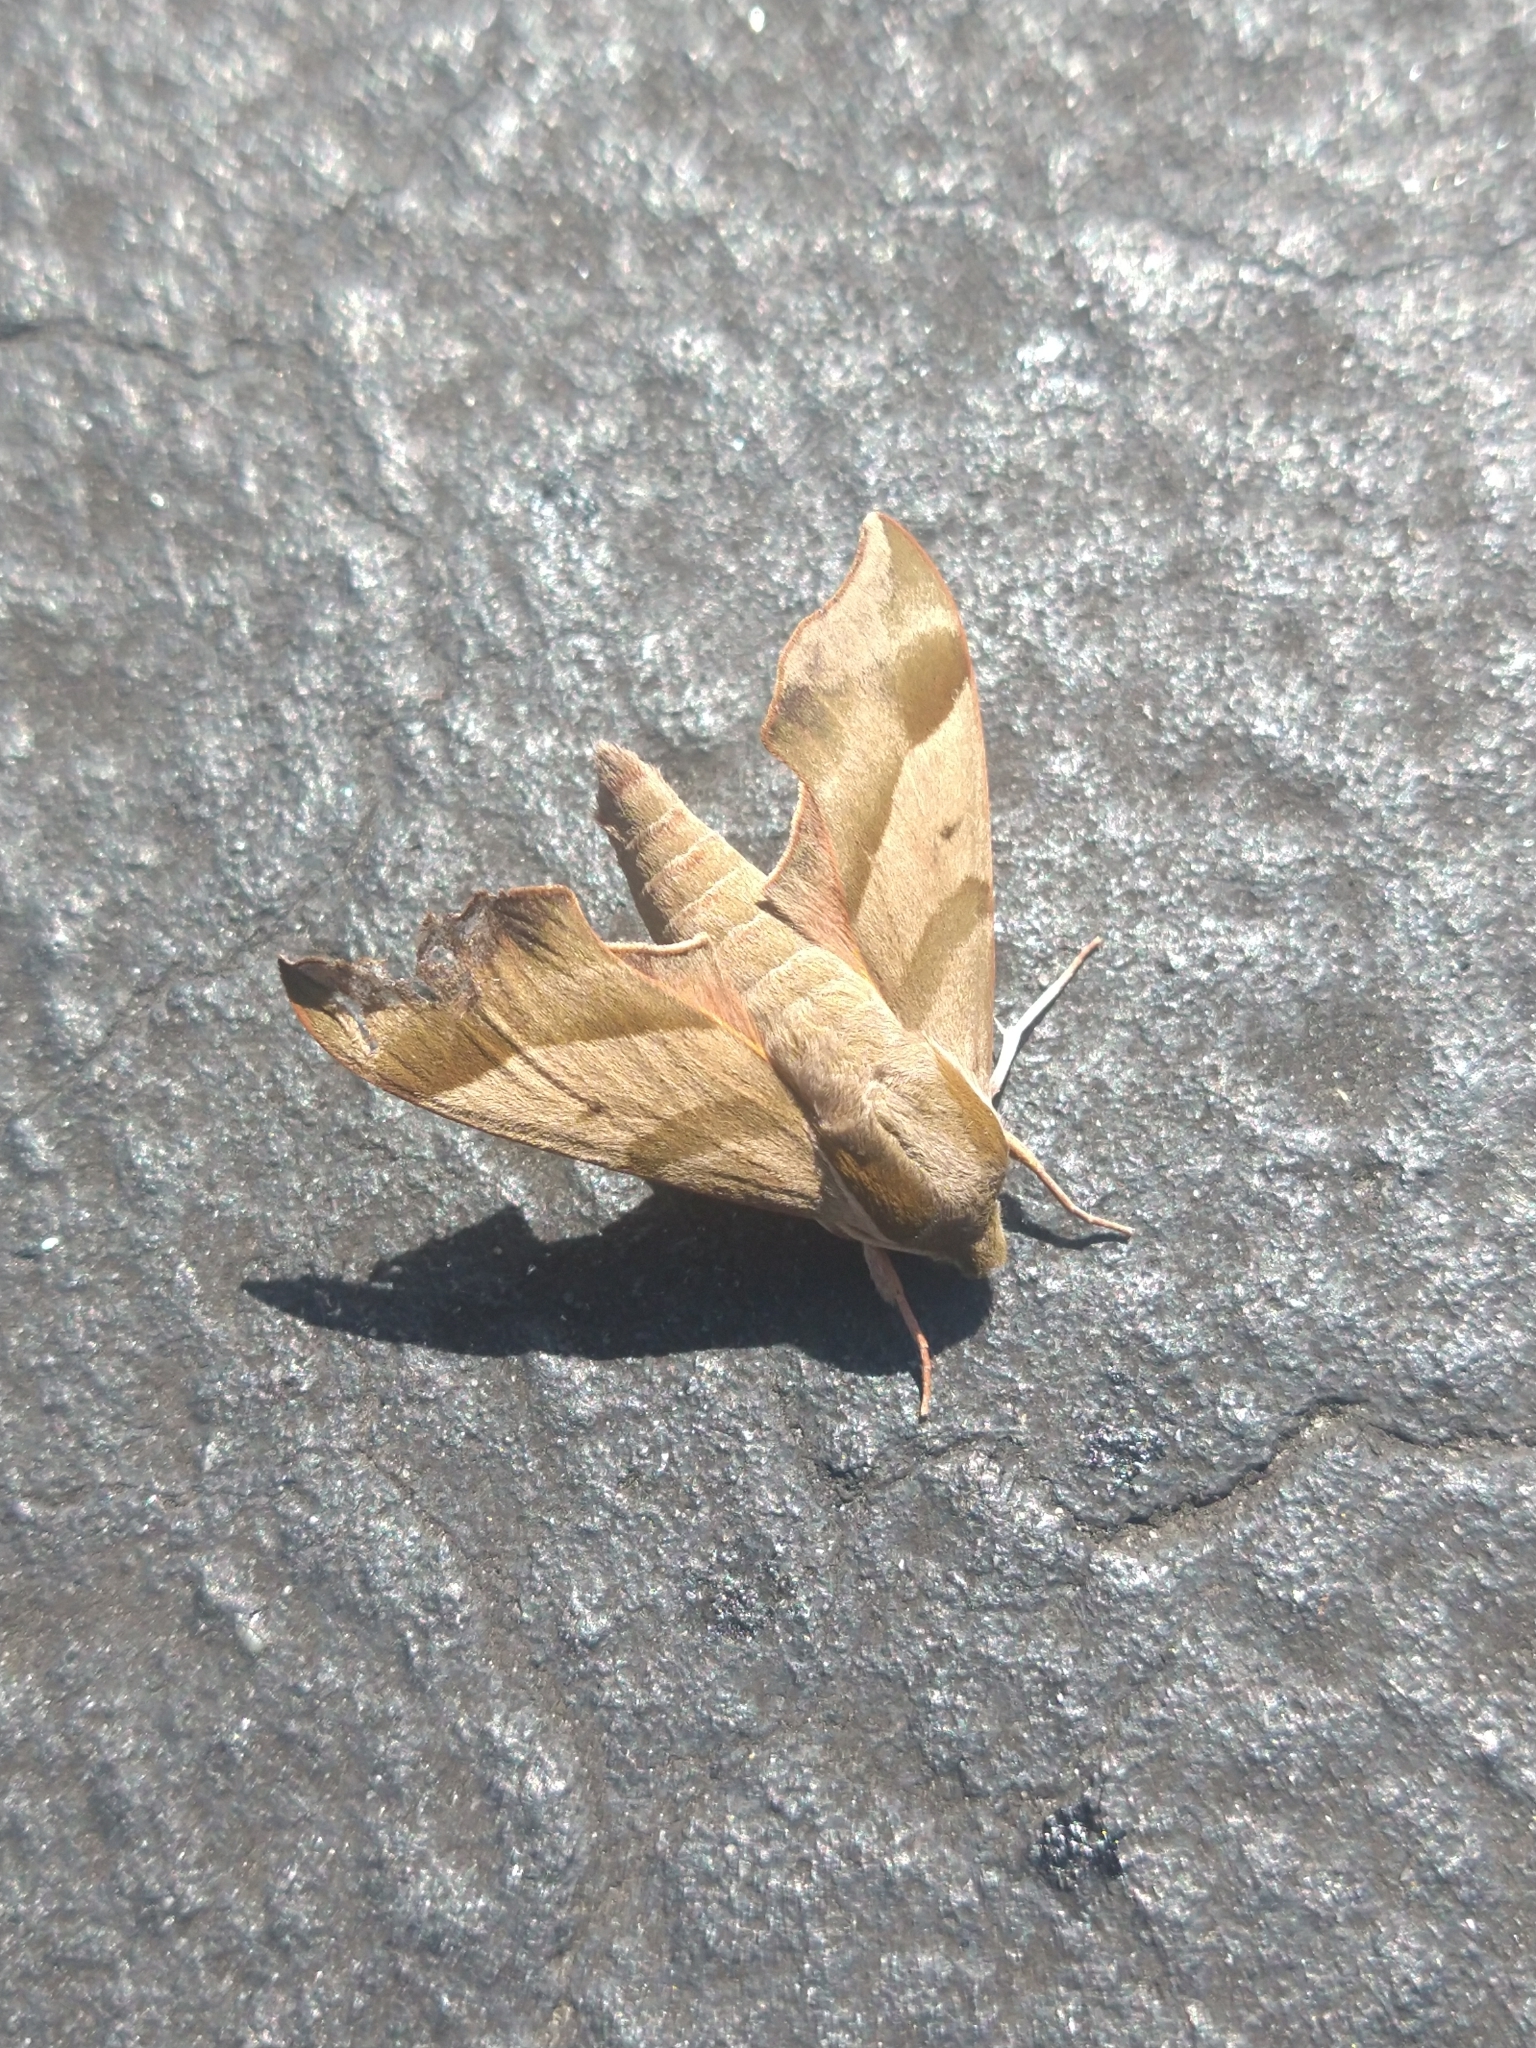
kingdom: Animalia
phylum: Arthropoda
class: Insecta
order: Lepidoptera
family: Sphingidae
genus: Darapsa
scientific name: Darapsa myron
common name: Hog sphinx
